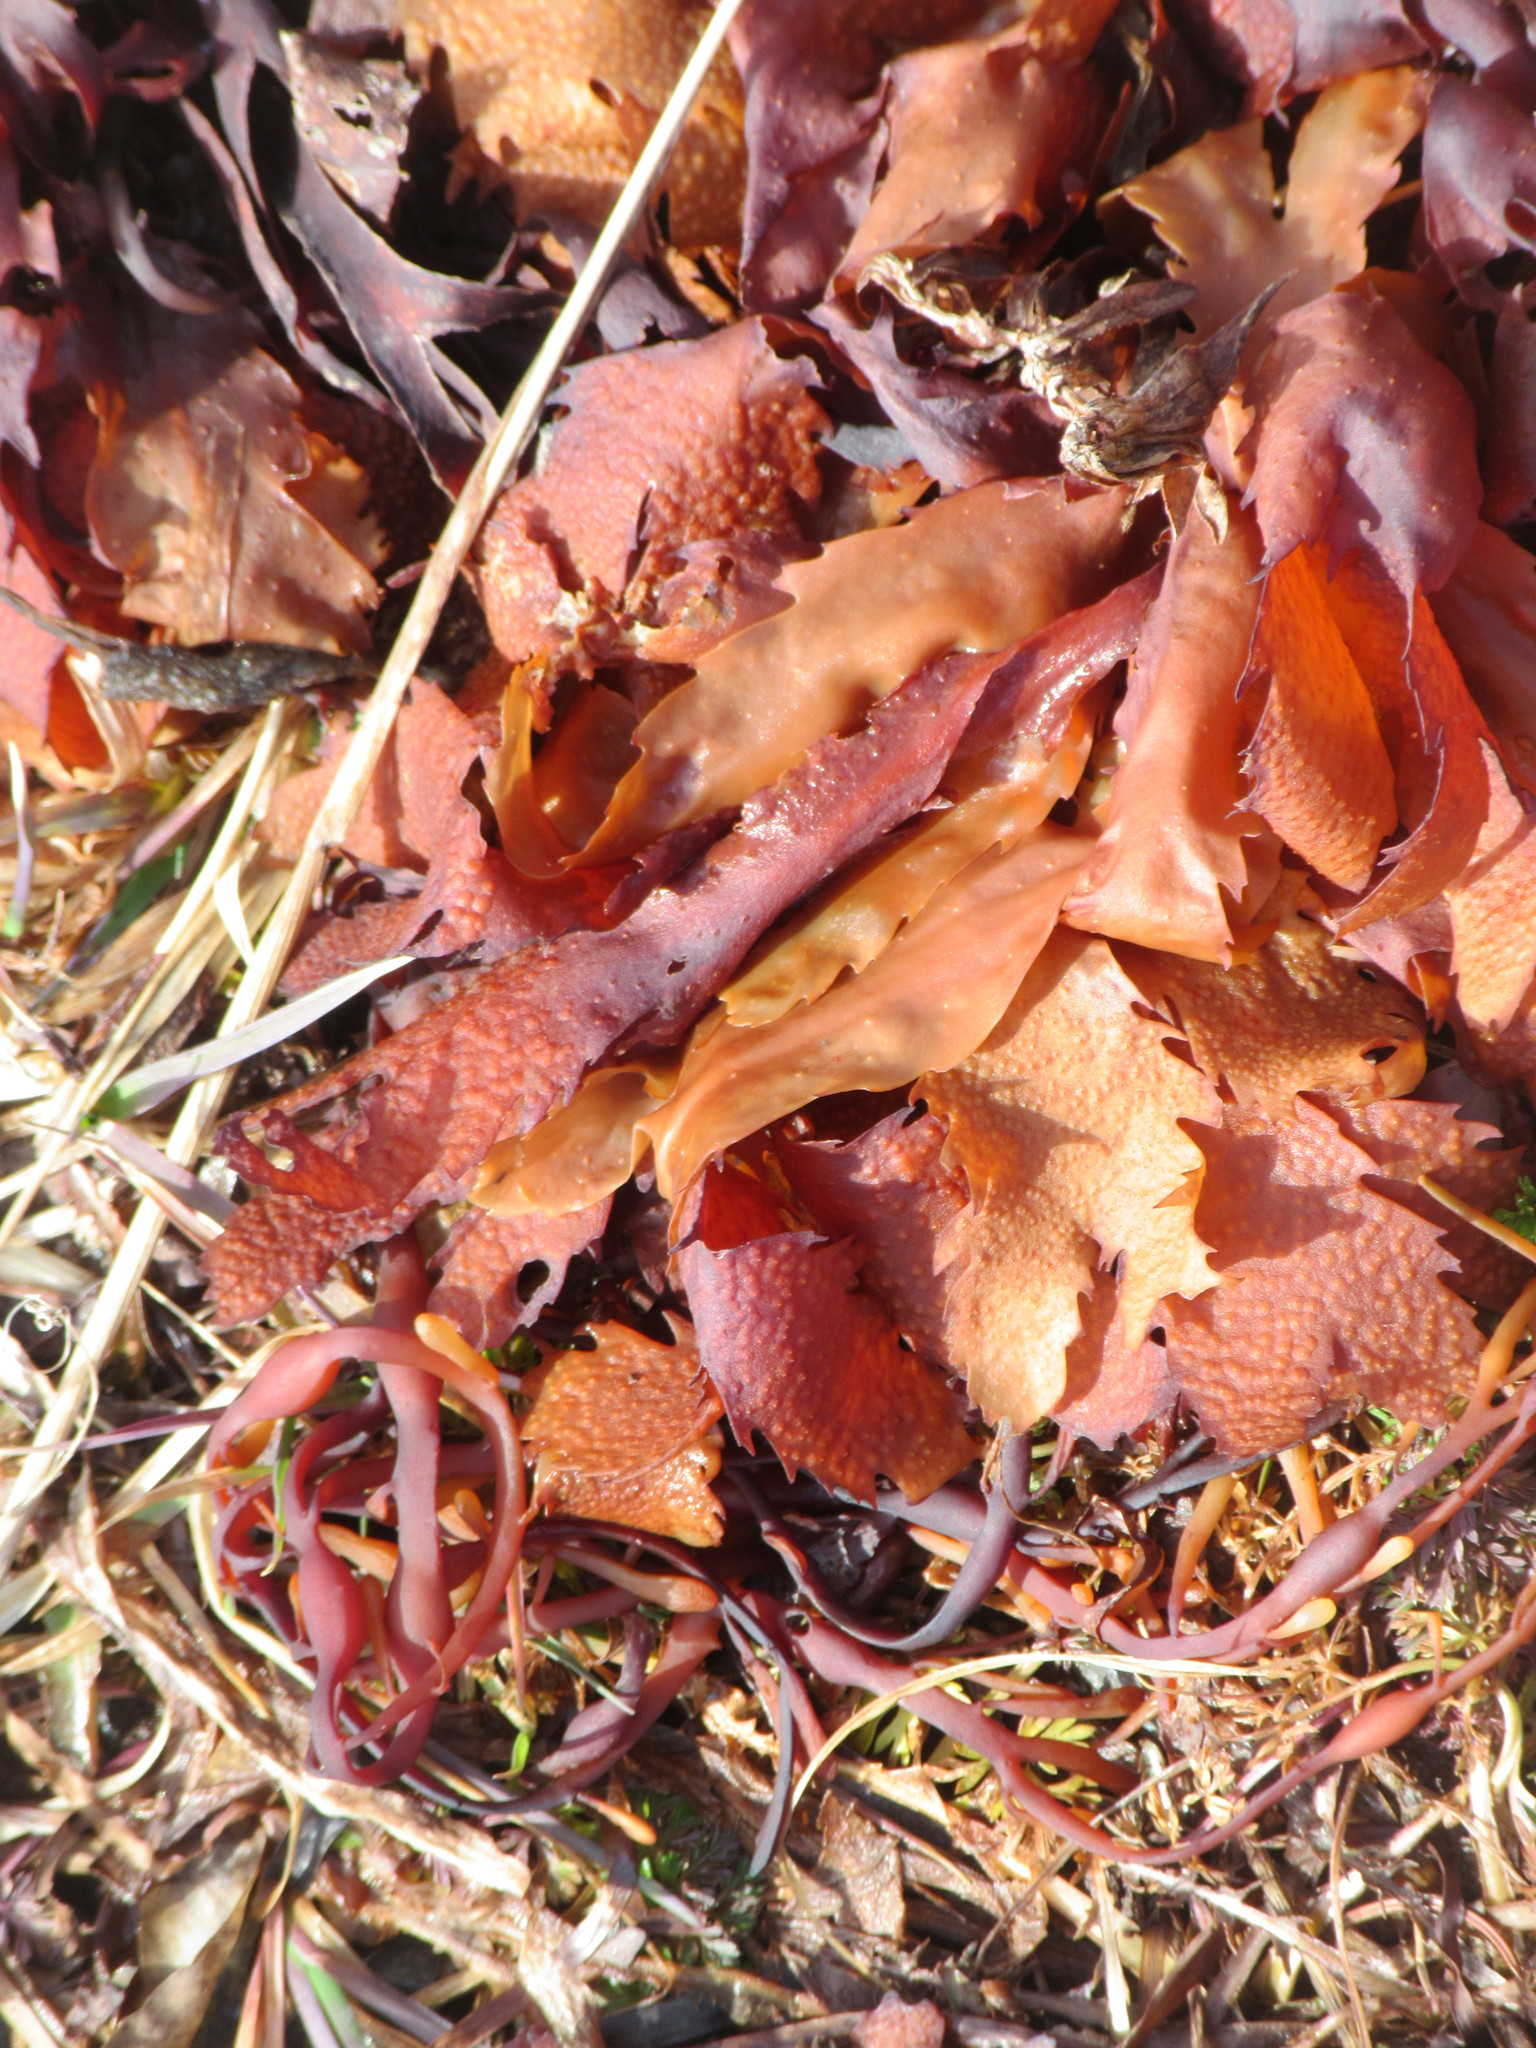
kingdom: Chromista
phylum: Ochrophyta
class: Phaeophyceae
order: Fucales
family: Fucaceae
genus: Fucus
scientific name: Fucus serratus
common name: Toothed wrack
